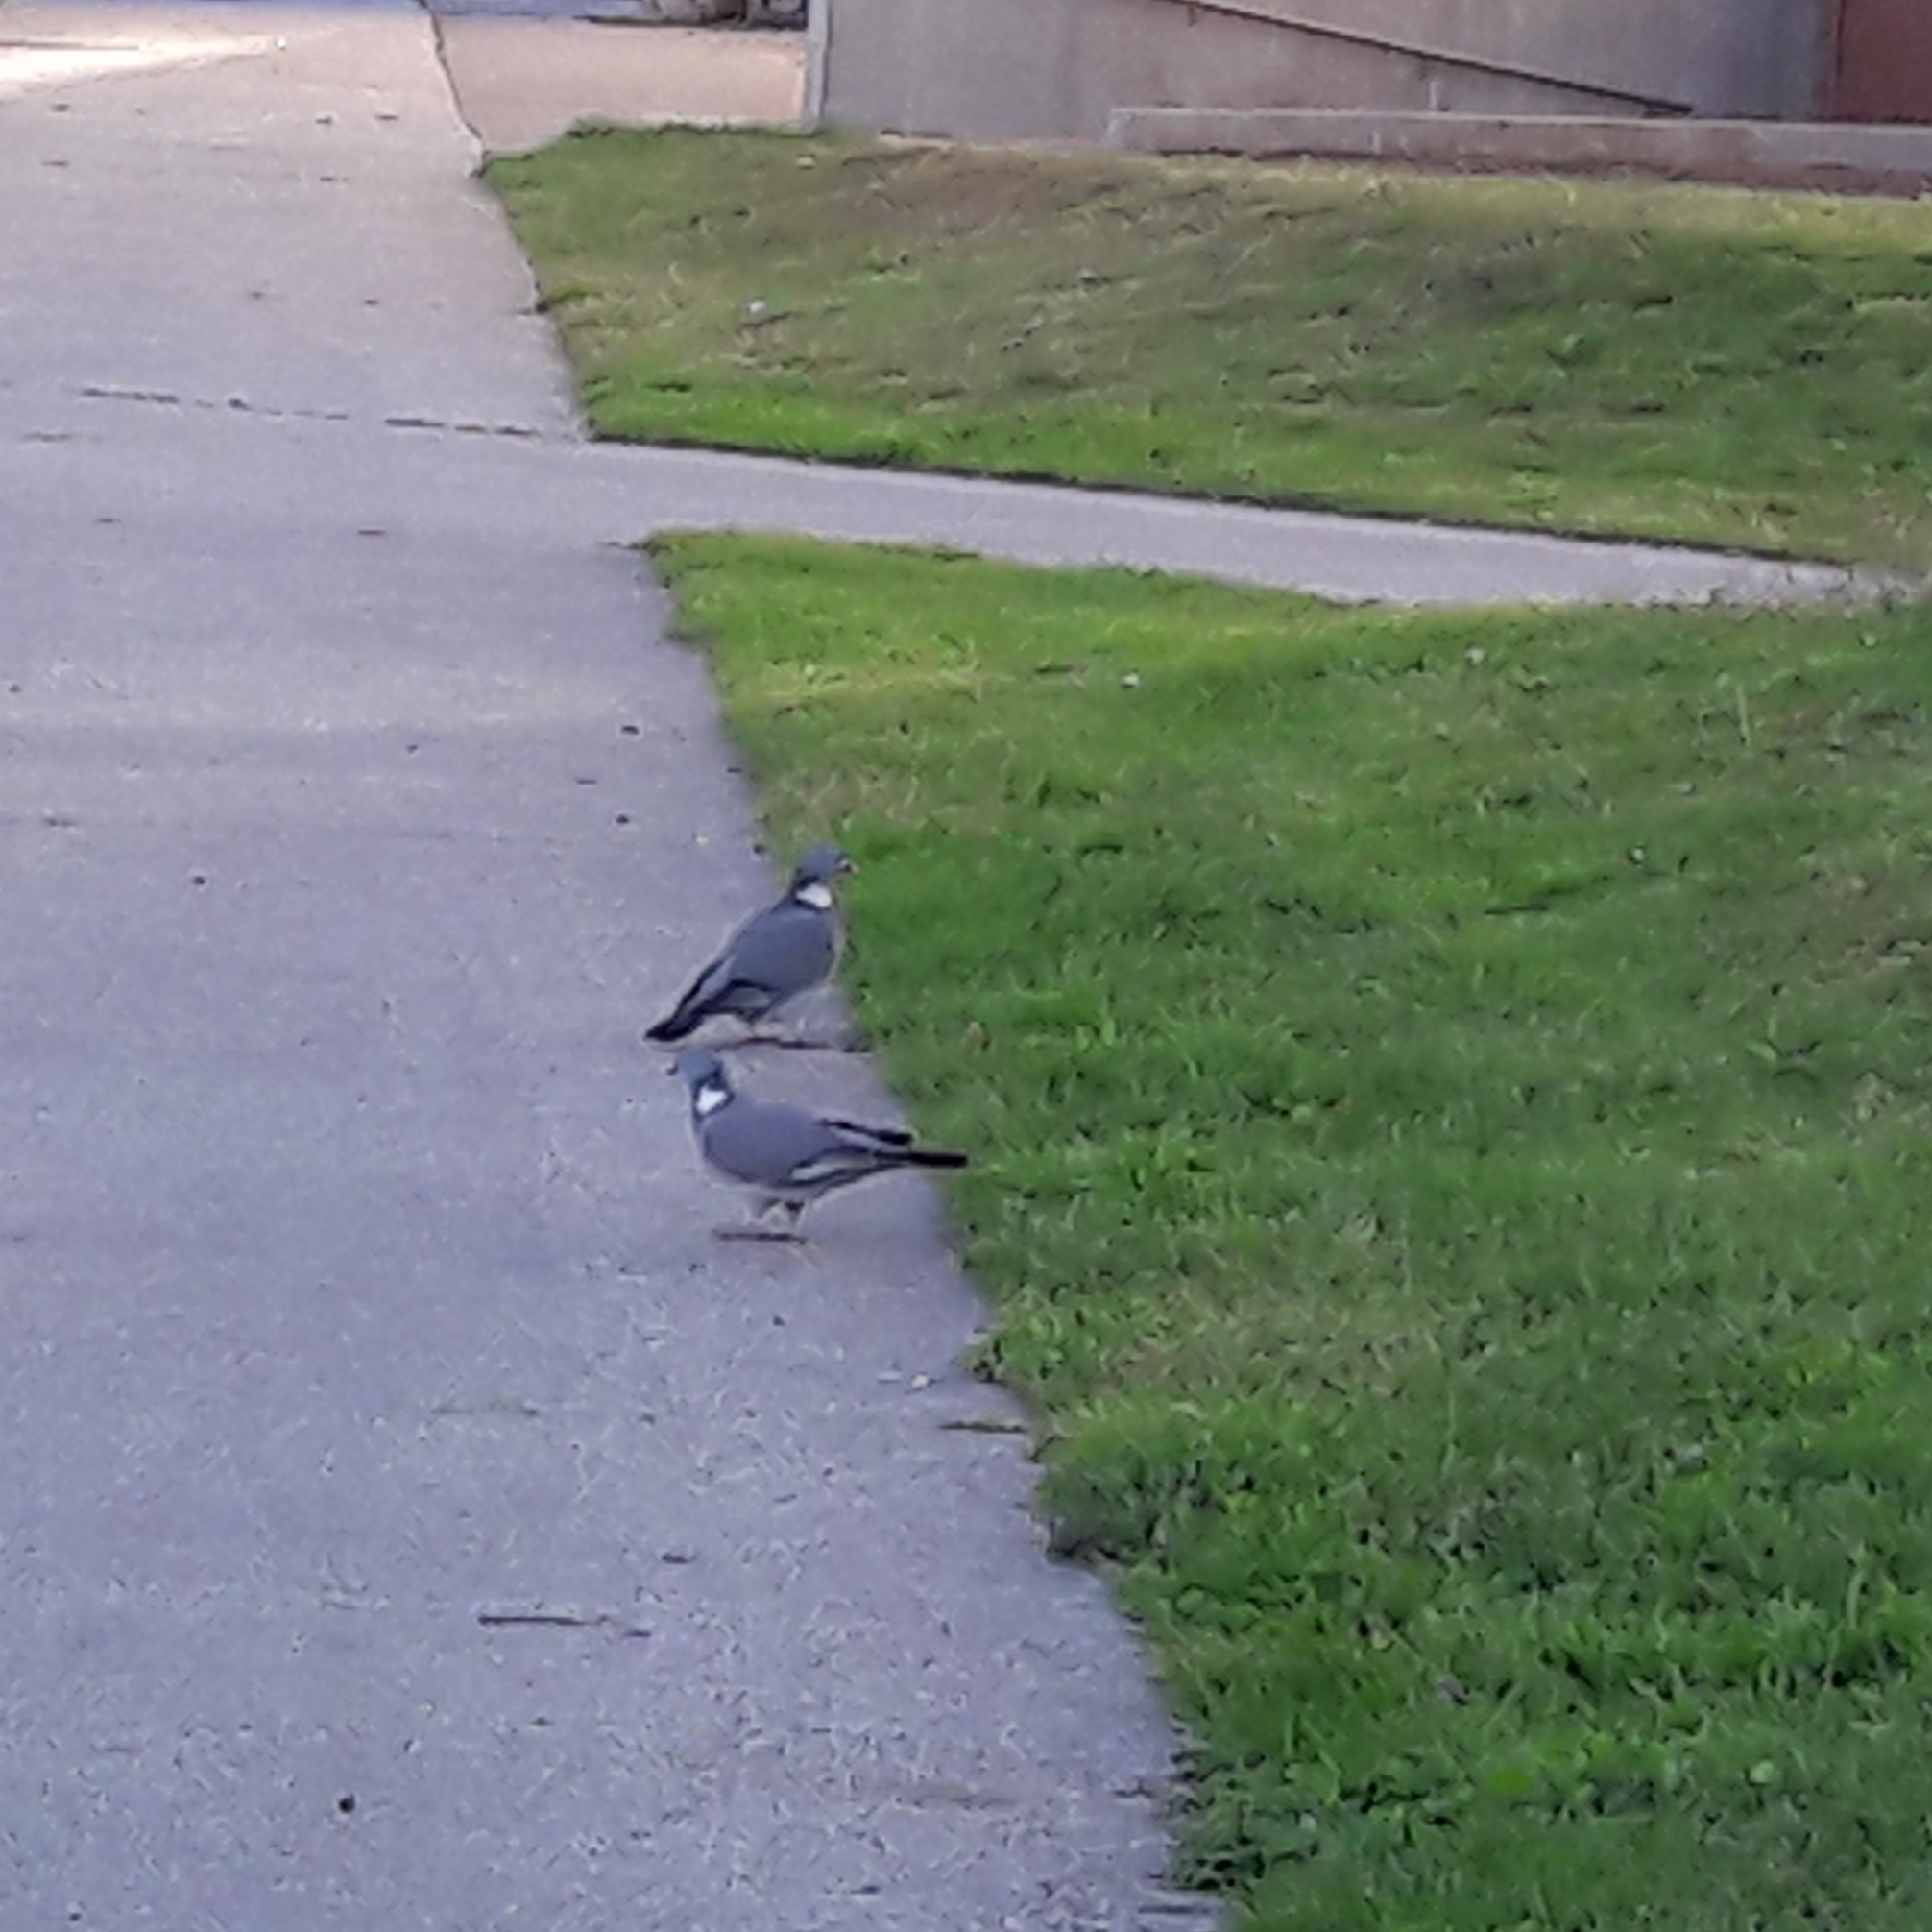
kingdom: Animalia
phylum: Chordata
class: Aves
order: Columbiformes
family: Columbidae
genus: Columba
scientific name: Columba palumbus
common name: Common wood pigeon
